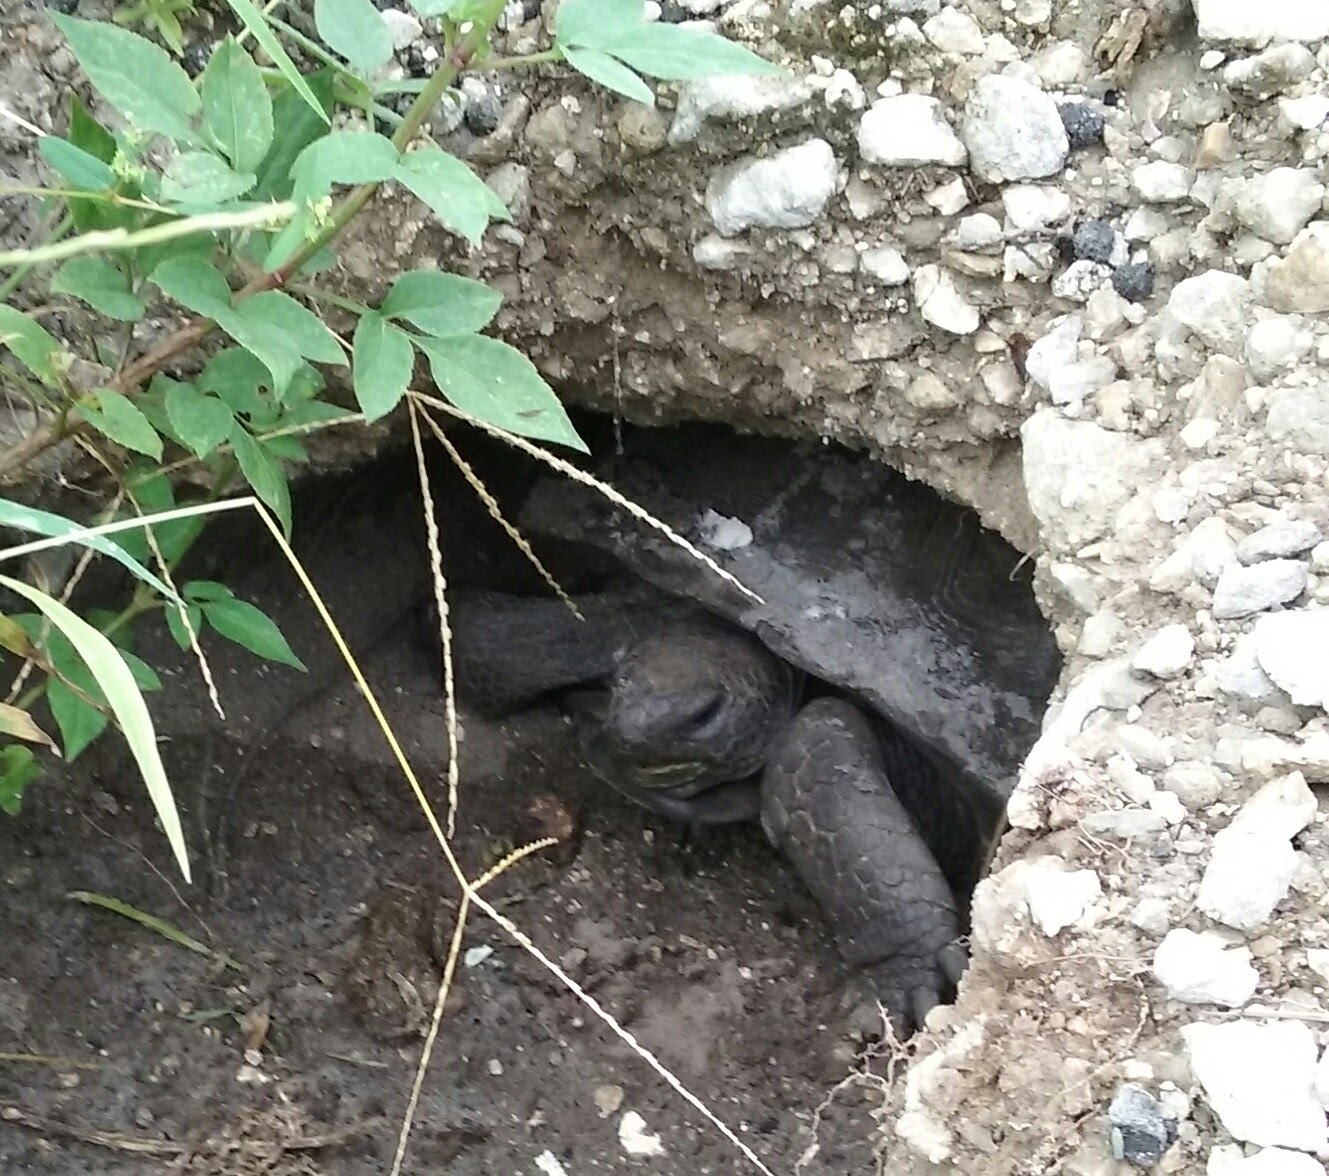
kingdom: Animalia
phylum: Chordata
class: Testudines
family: Testudinidae
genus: Gopherus
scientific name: Gopherus polyphemus
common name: Florida gopher tortoise
